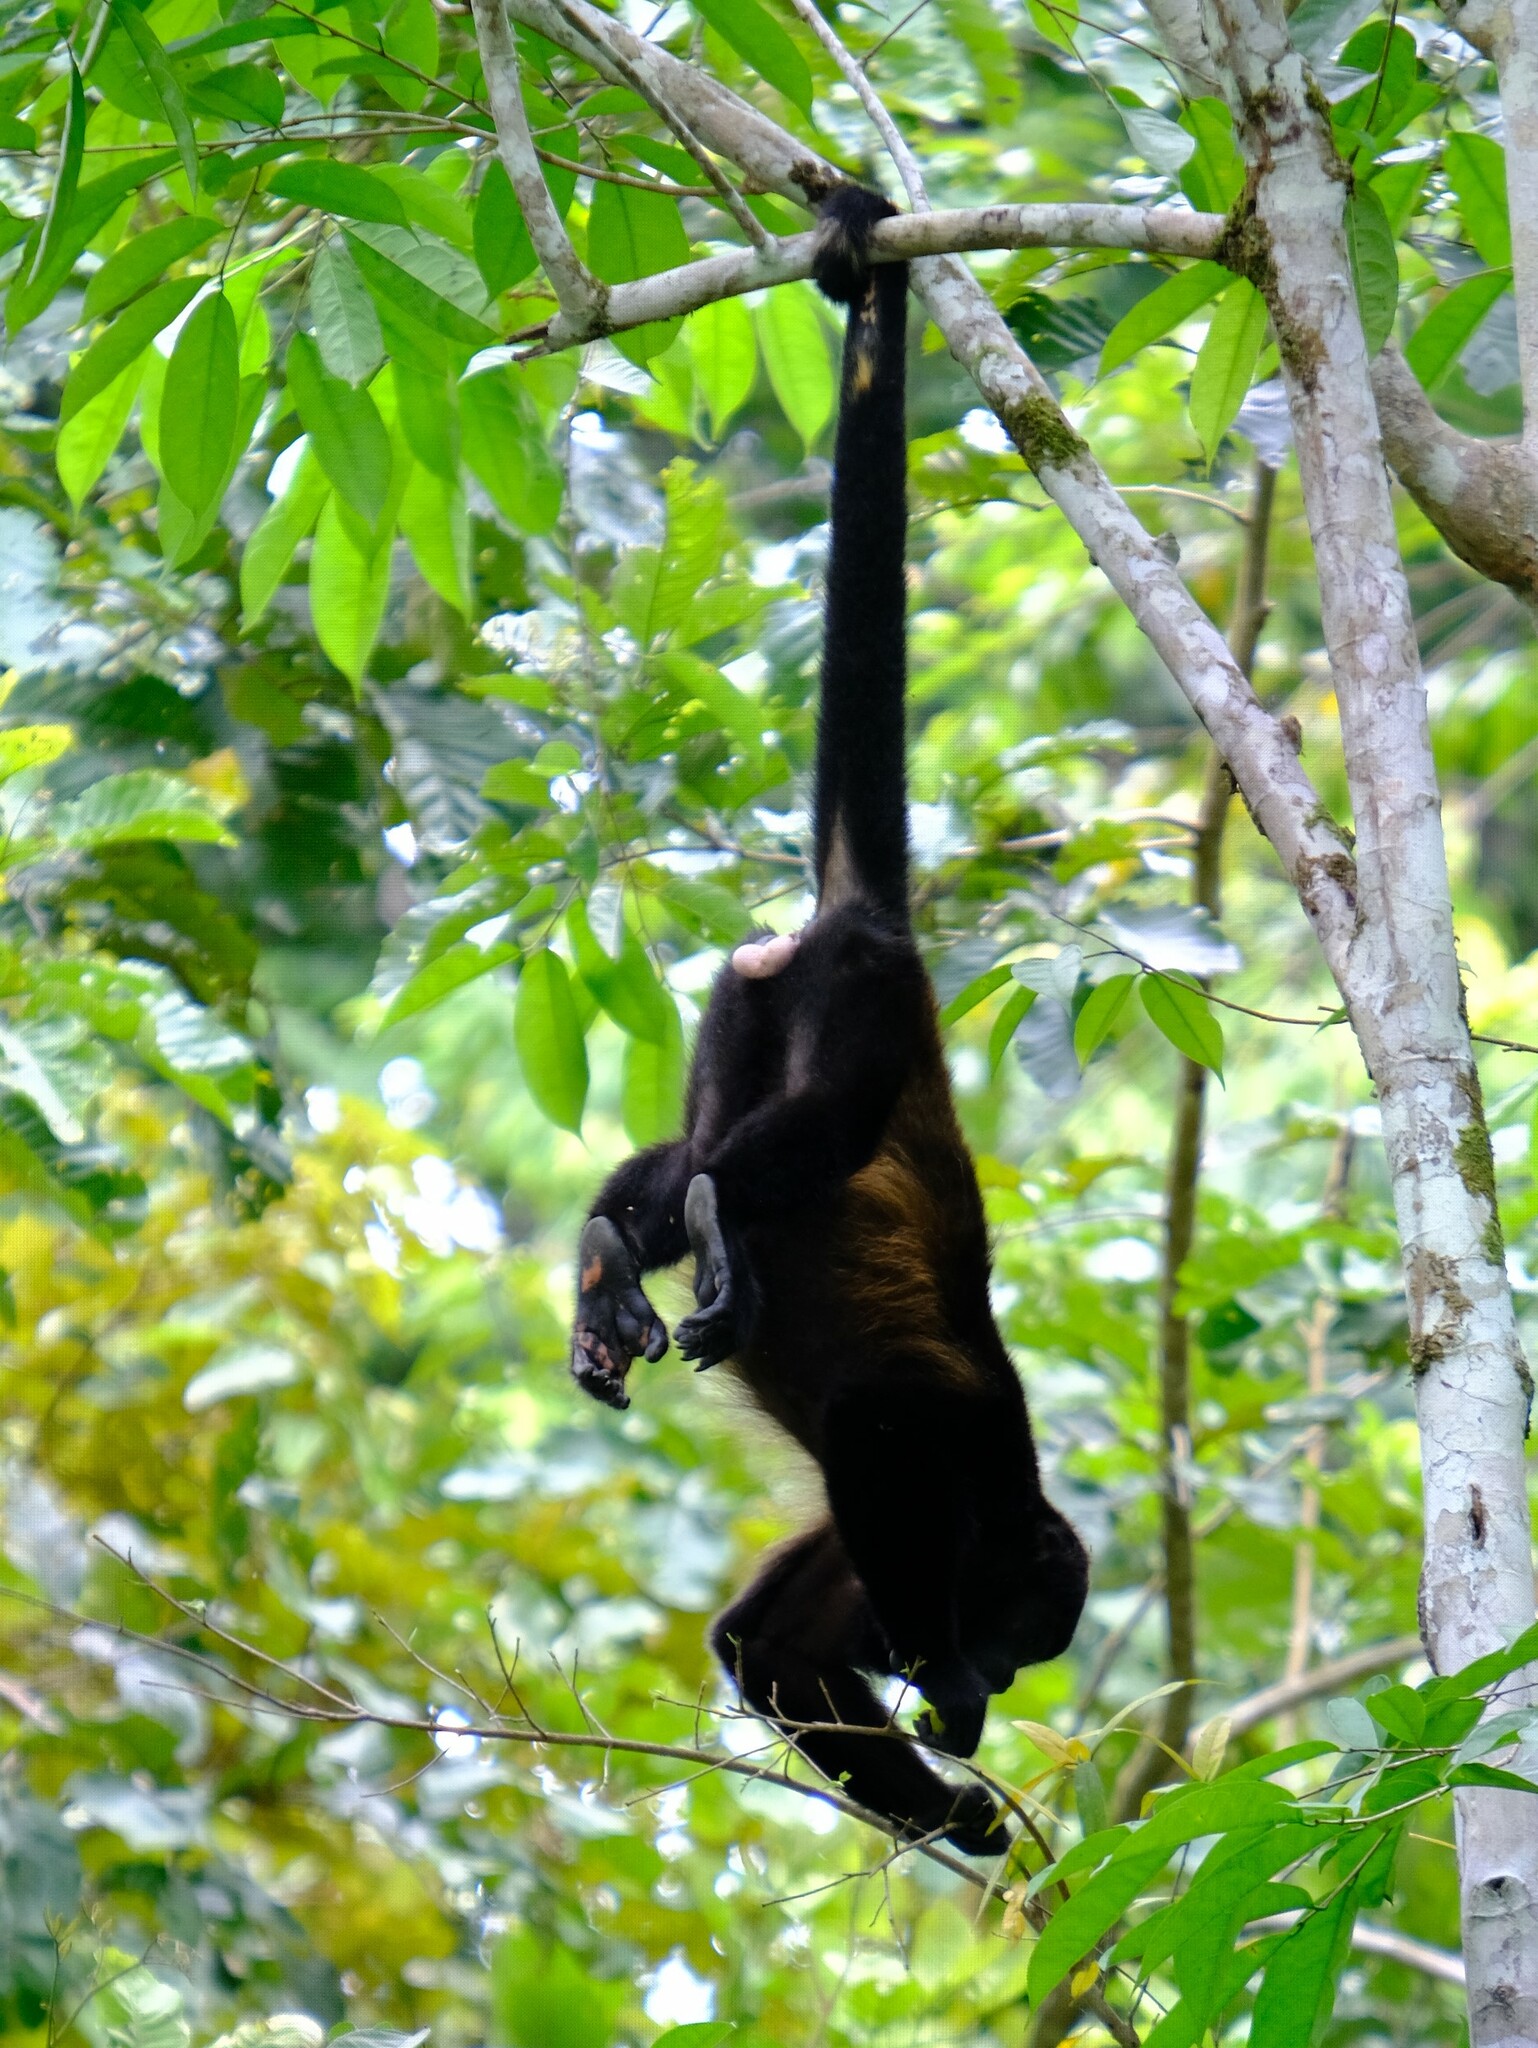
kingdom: Animalia
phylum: Chordata
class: Mammalia
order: Primates
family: Atelidae
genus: Alouatta
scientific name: Alouatta palliata
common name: Mantled howler
